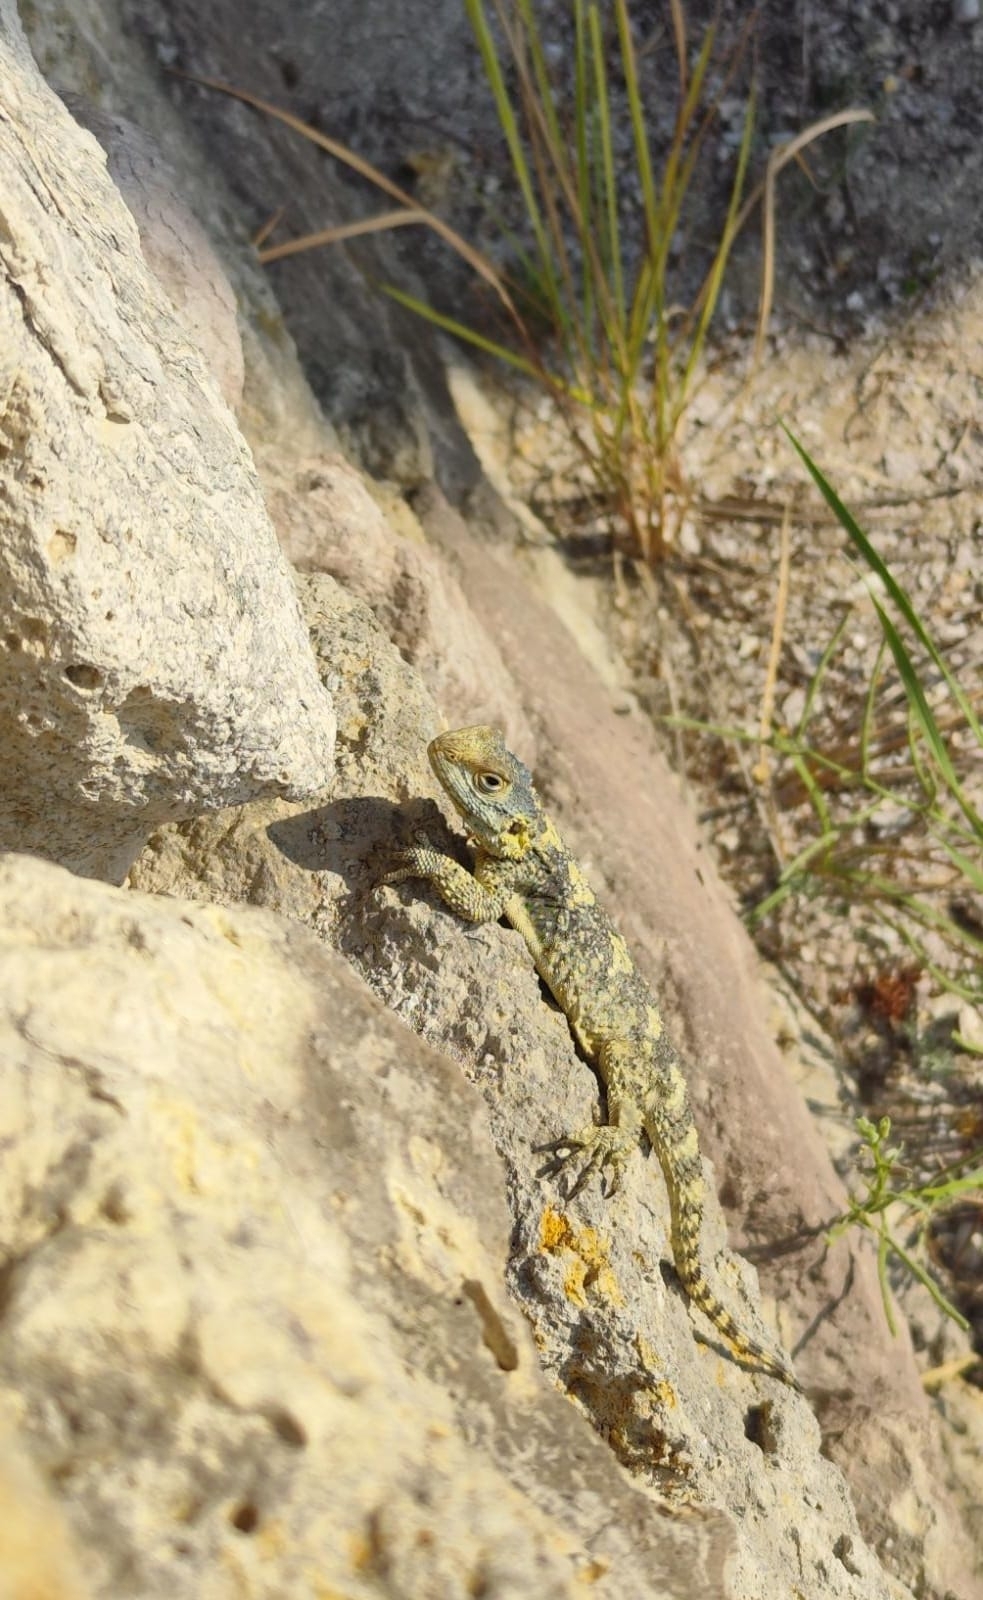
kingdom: Animalia
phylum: Chordata
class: Squamata
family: Agamidae
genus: Stellagama
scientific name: Stellagama stellio
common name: Starred agama
